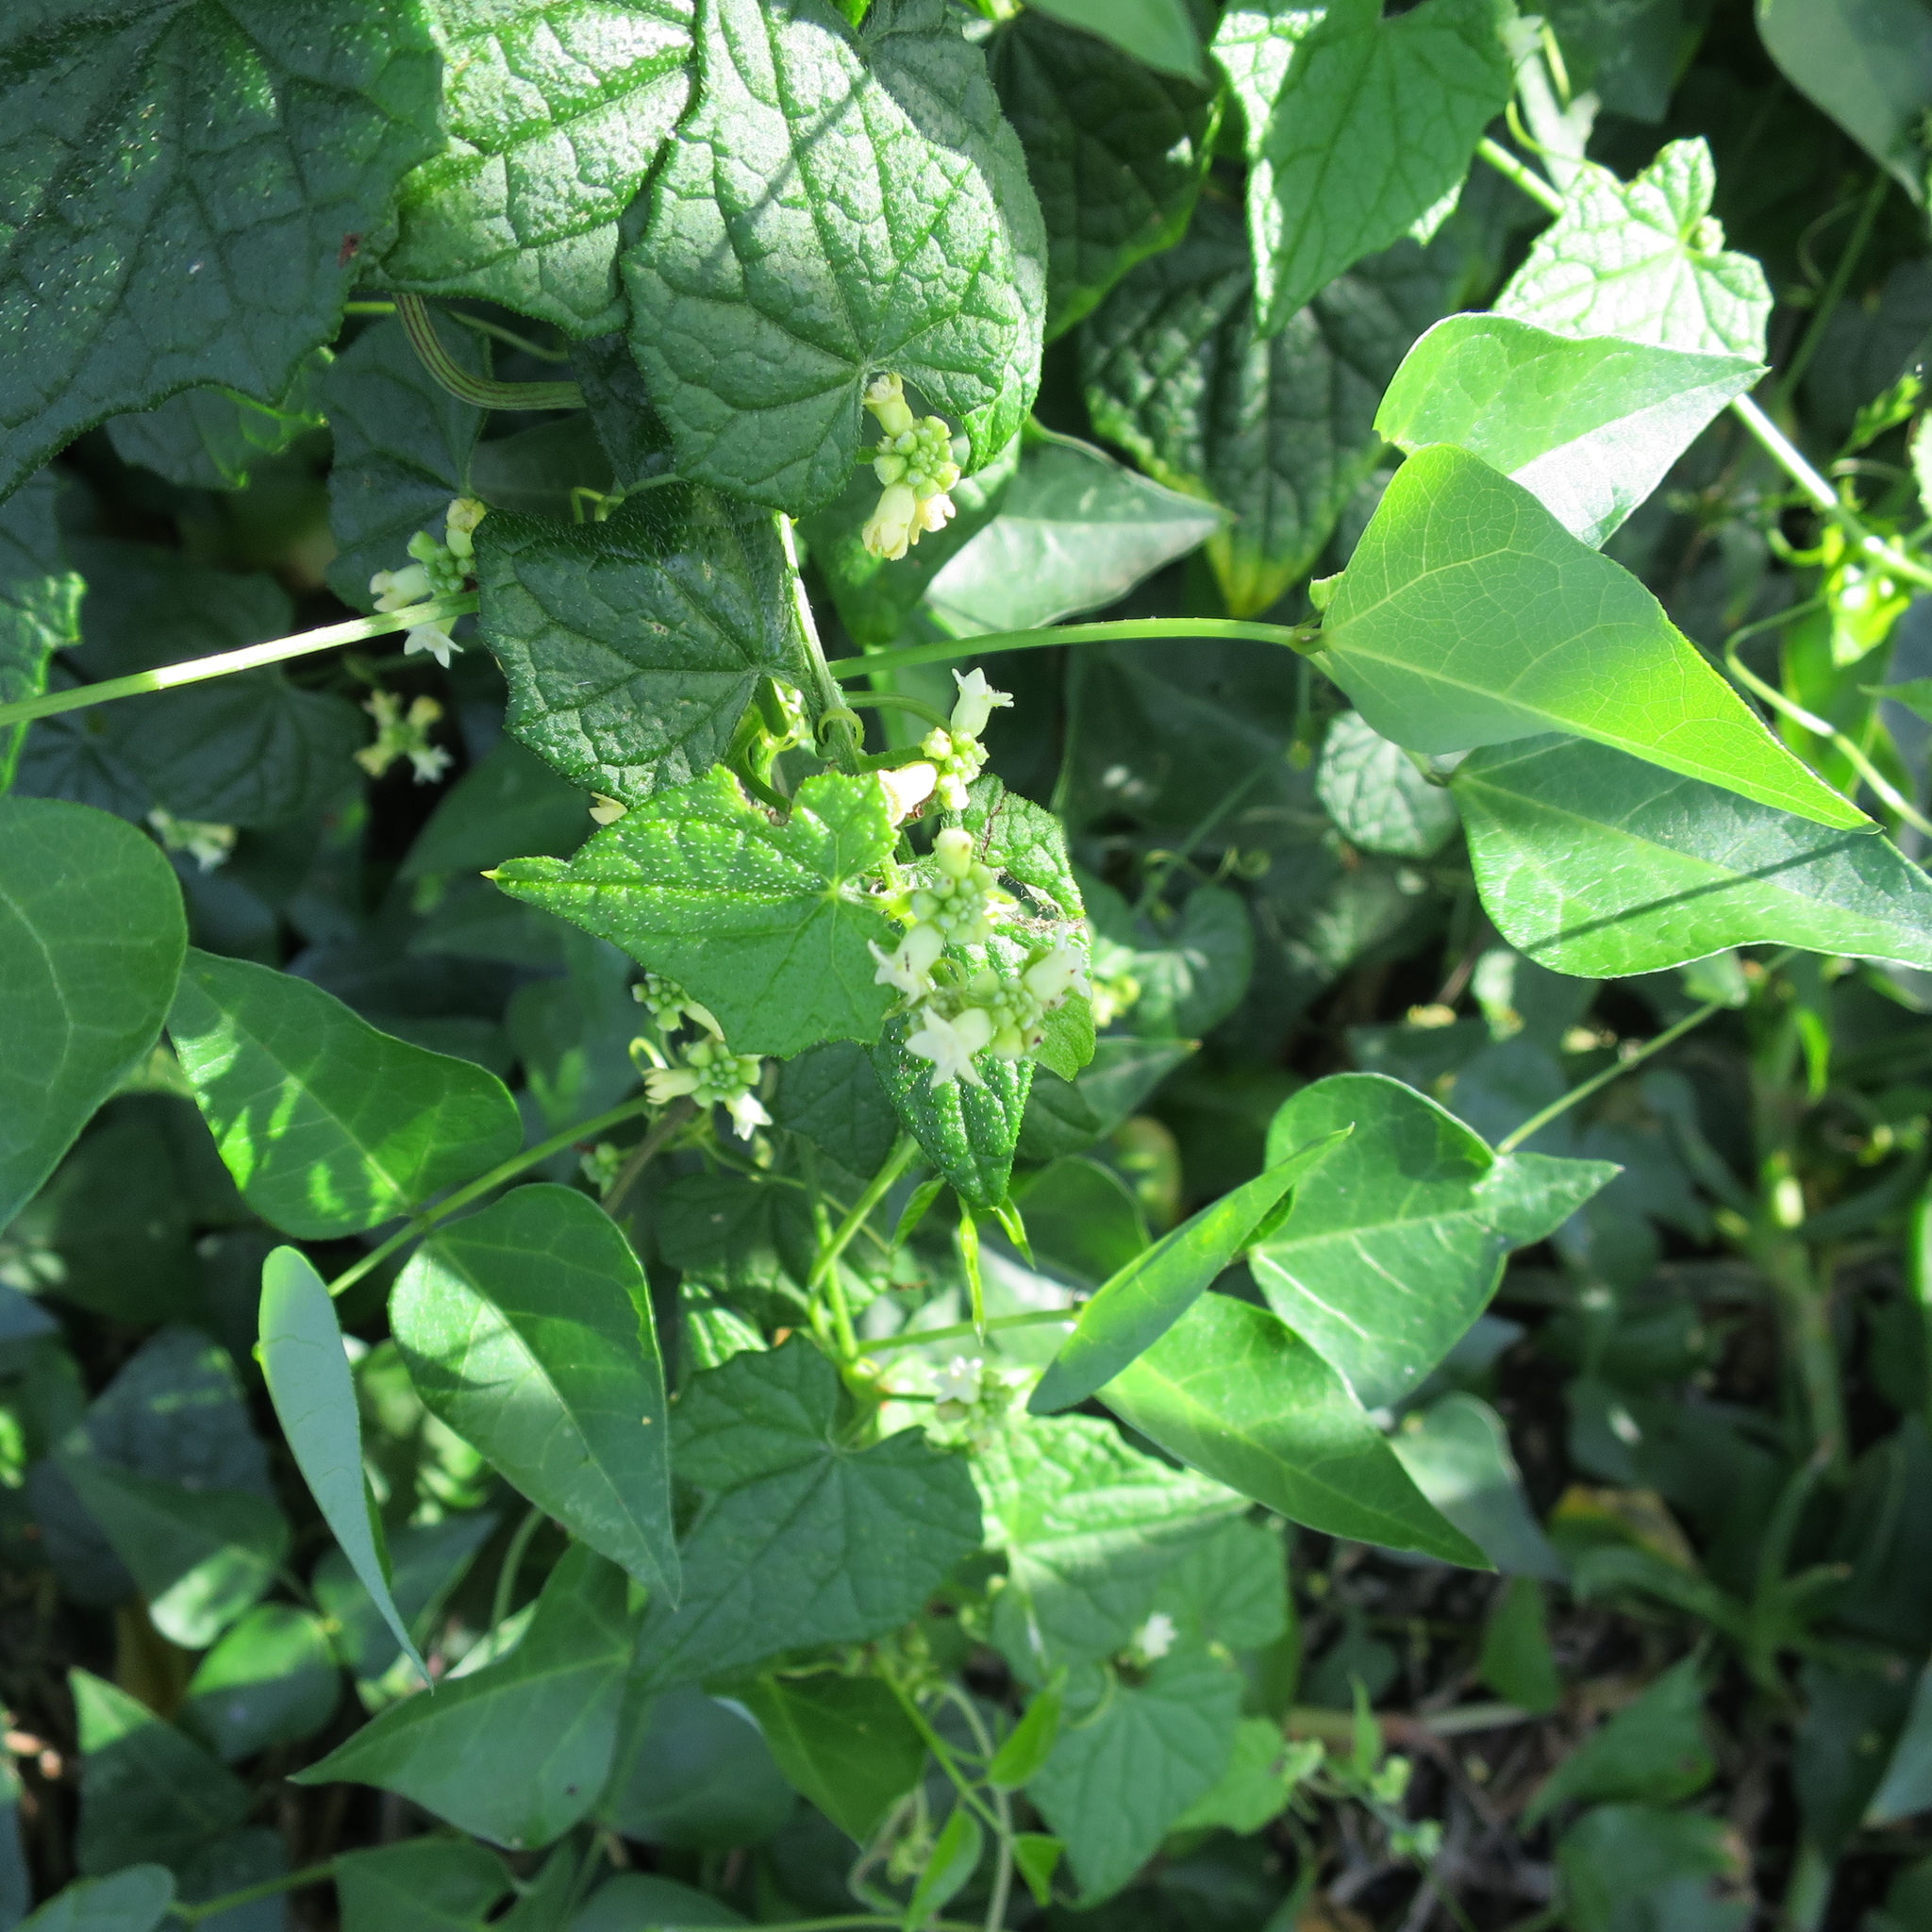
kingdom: Plantae
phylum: Tracheophyta
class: Magnoliopsida
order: Cucurbitales
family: Cucurbitaceae
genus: Zehneria
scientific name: Zehneria scabra
